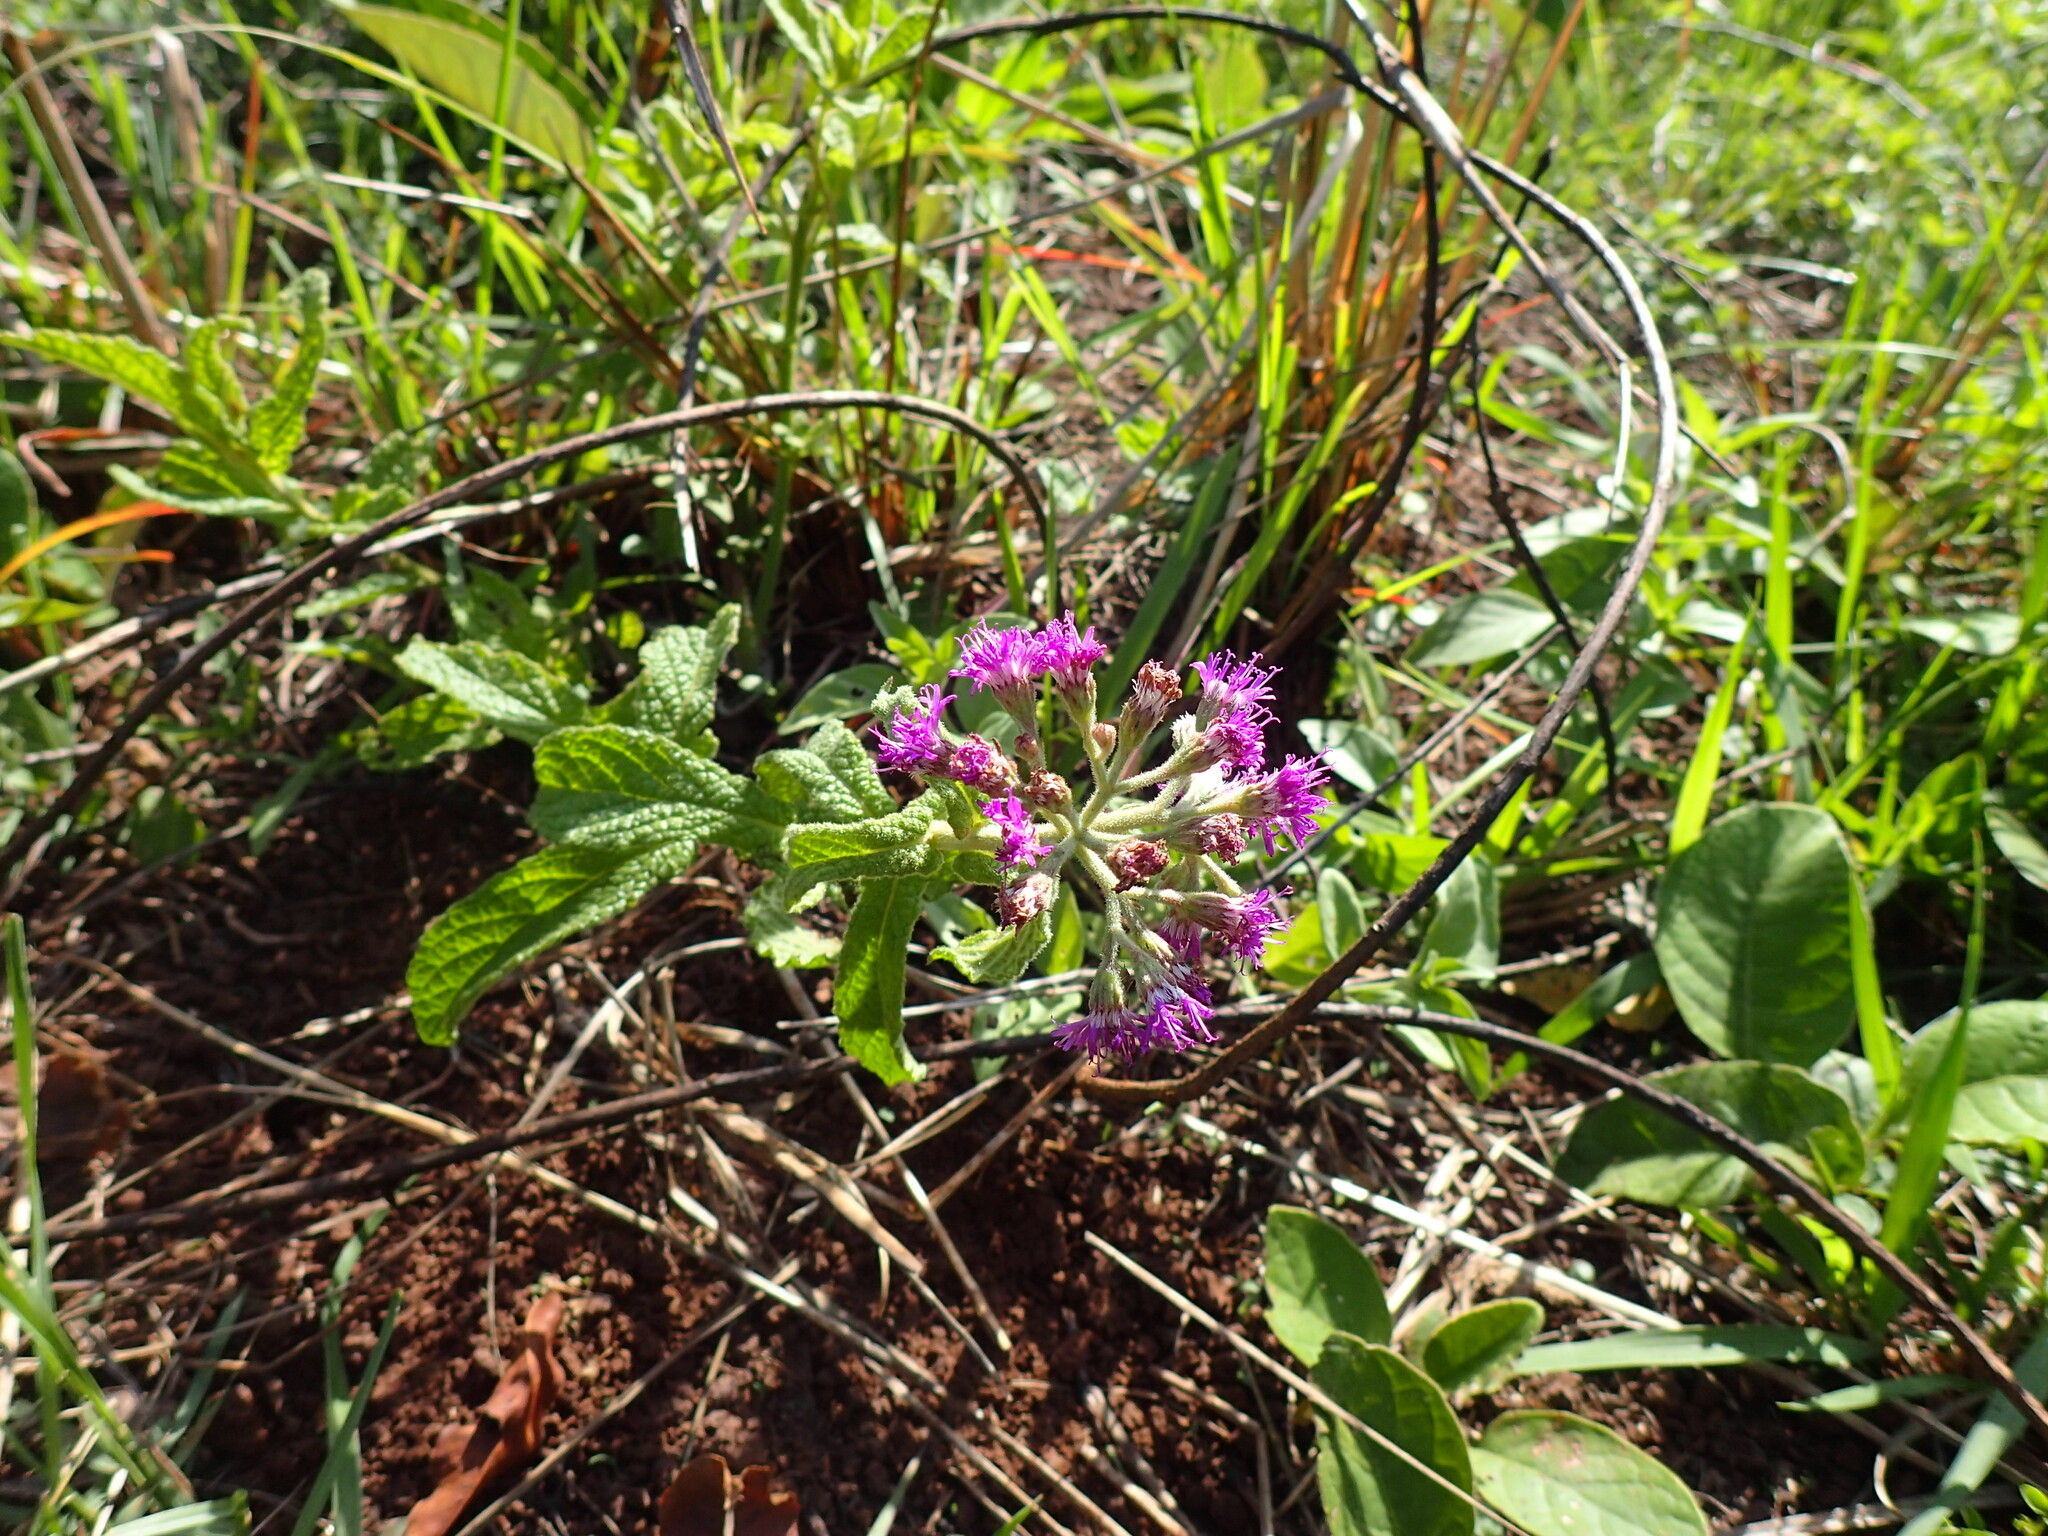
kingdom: Plantae
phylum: Tracheophyta
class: Magnoliopsida
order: Asterales
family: Asteraceae
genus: Hilliardiella
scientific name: Hilliardiella hirsuta
